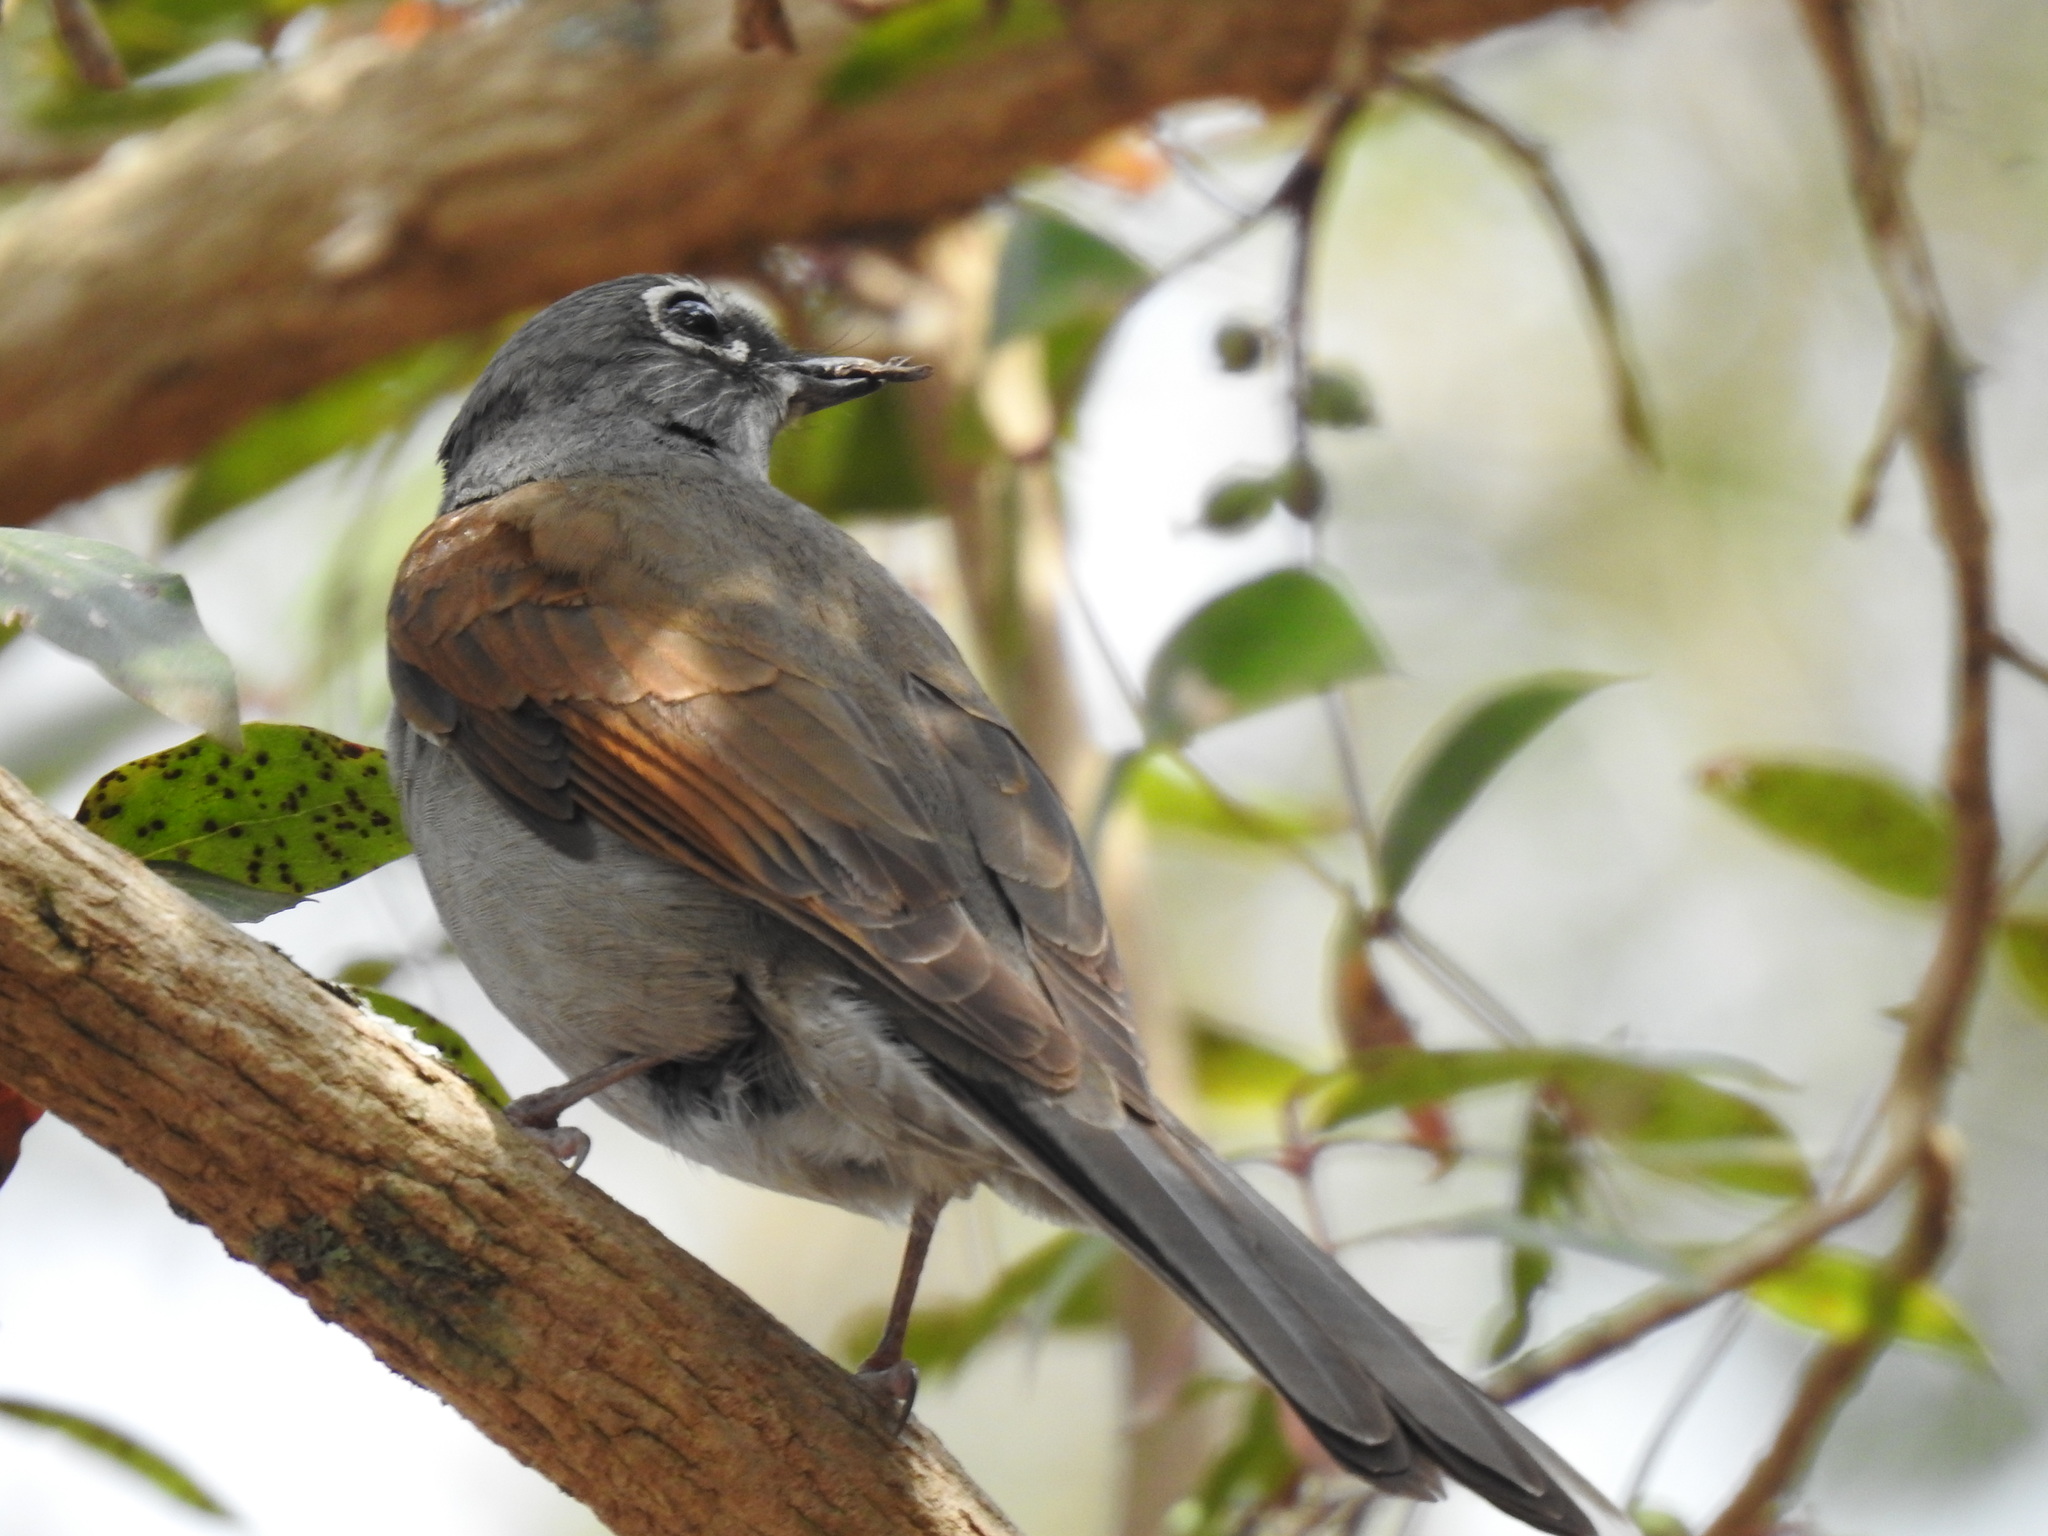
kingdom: Animalia
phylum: Chordata
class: Aves
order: Passeriformes
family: Turdidae
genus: Myadestes
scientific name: Myadestes occidentalis
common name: Brown-backed solitaire
